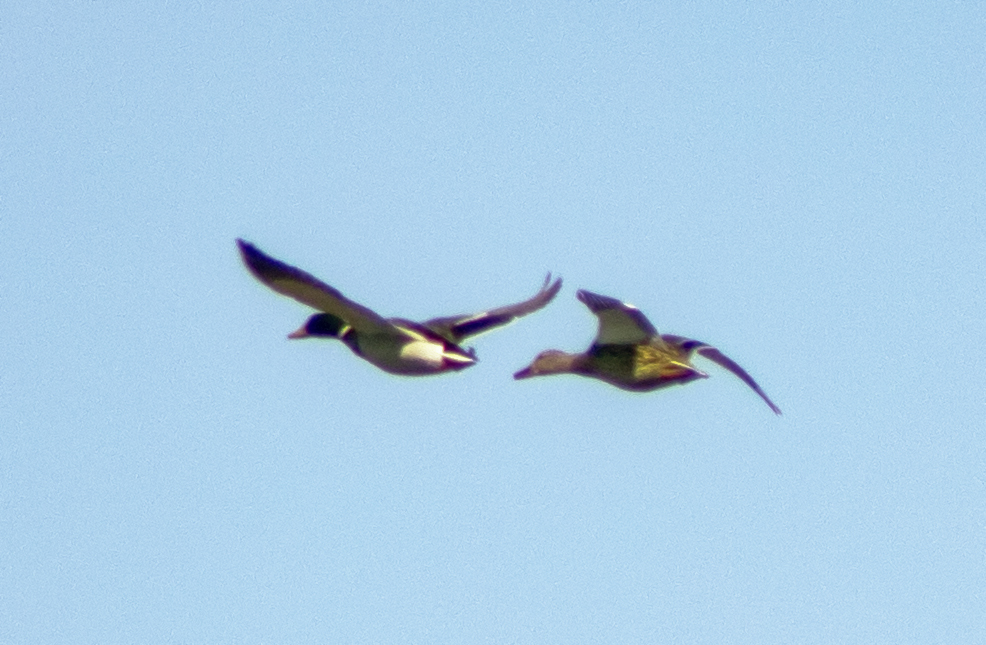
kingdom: Animalia
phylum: Chordata
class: Aves
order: Anseriformes
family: Anatidae
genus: Anas
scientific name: Anas platyrhynchos
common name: Mallard
